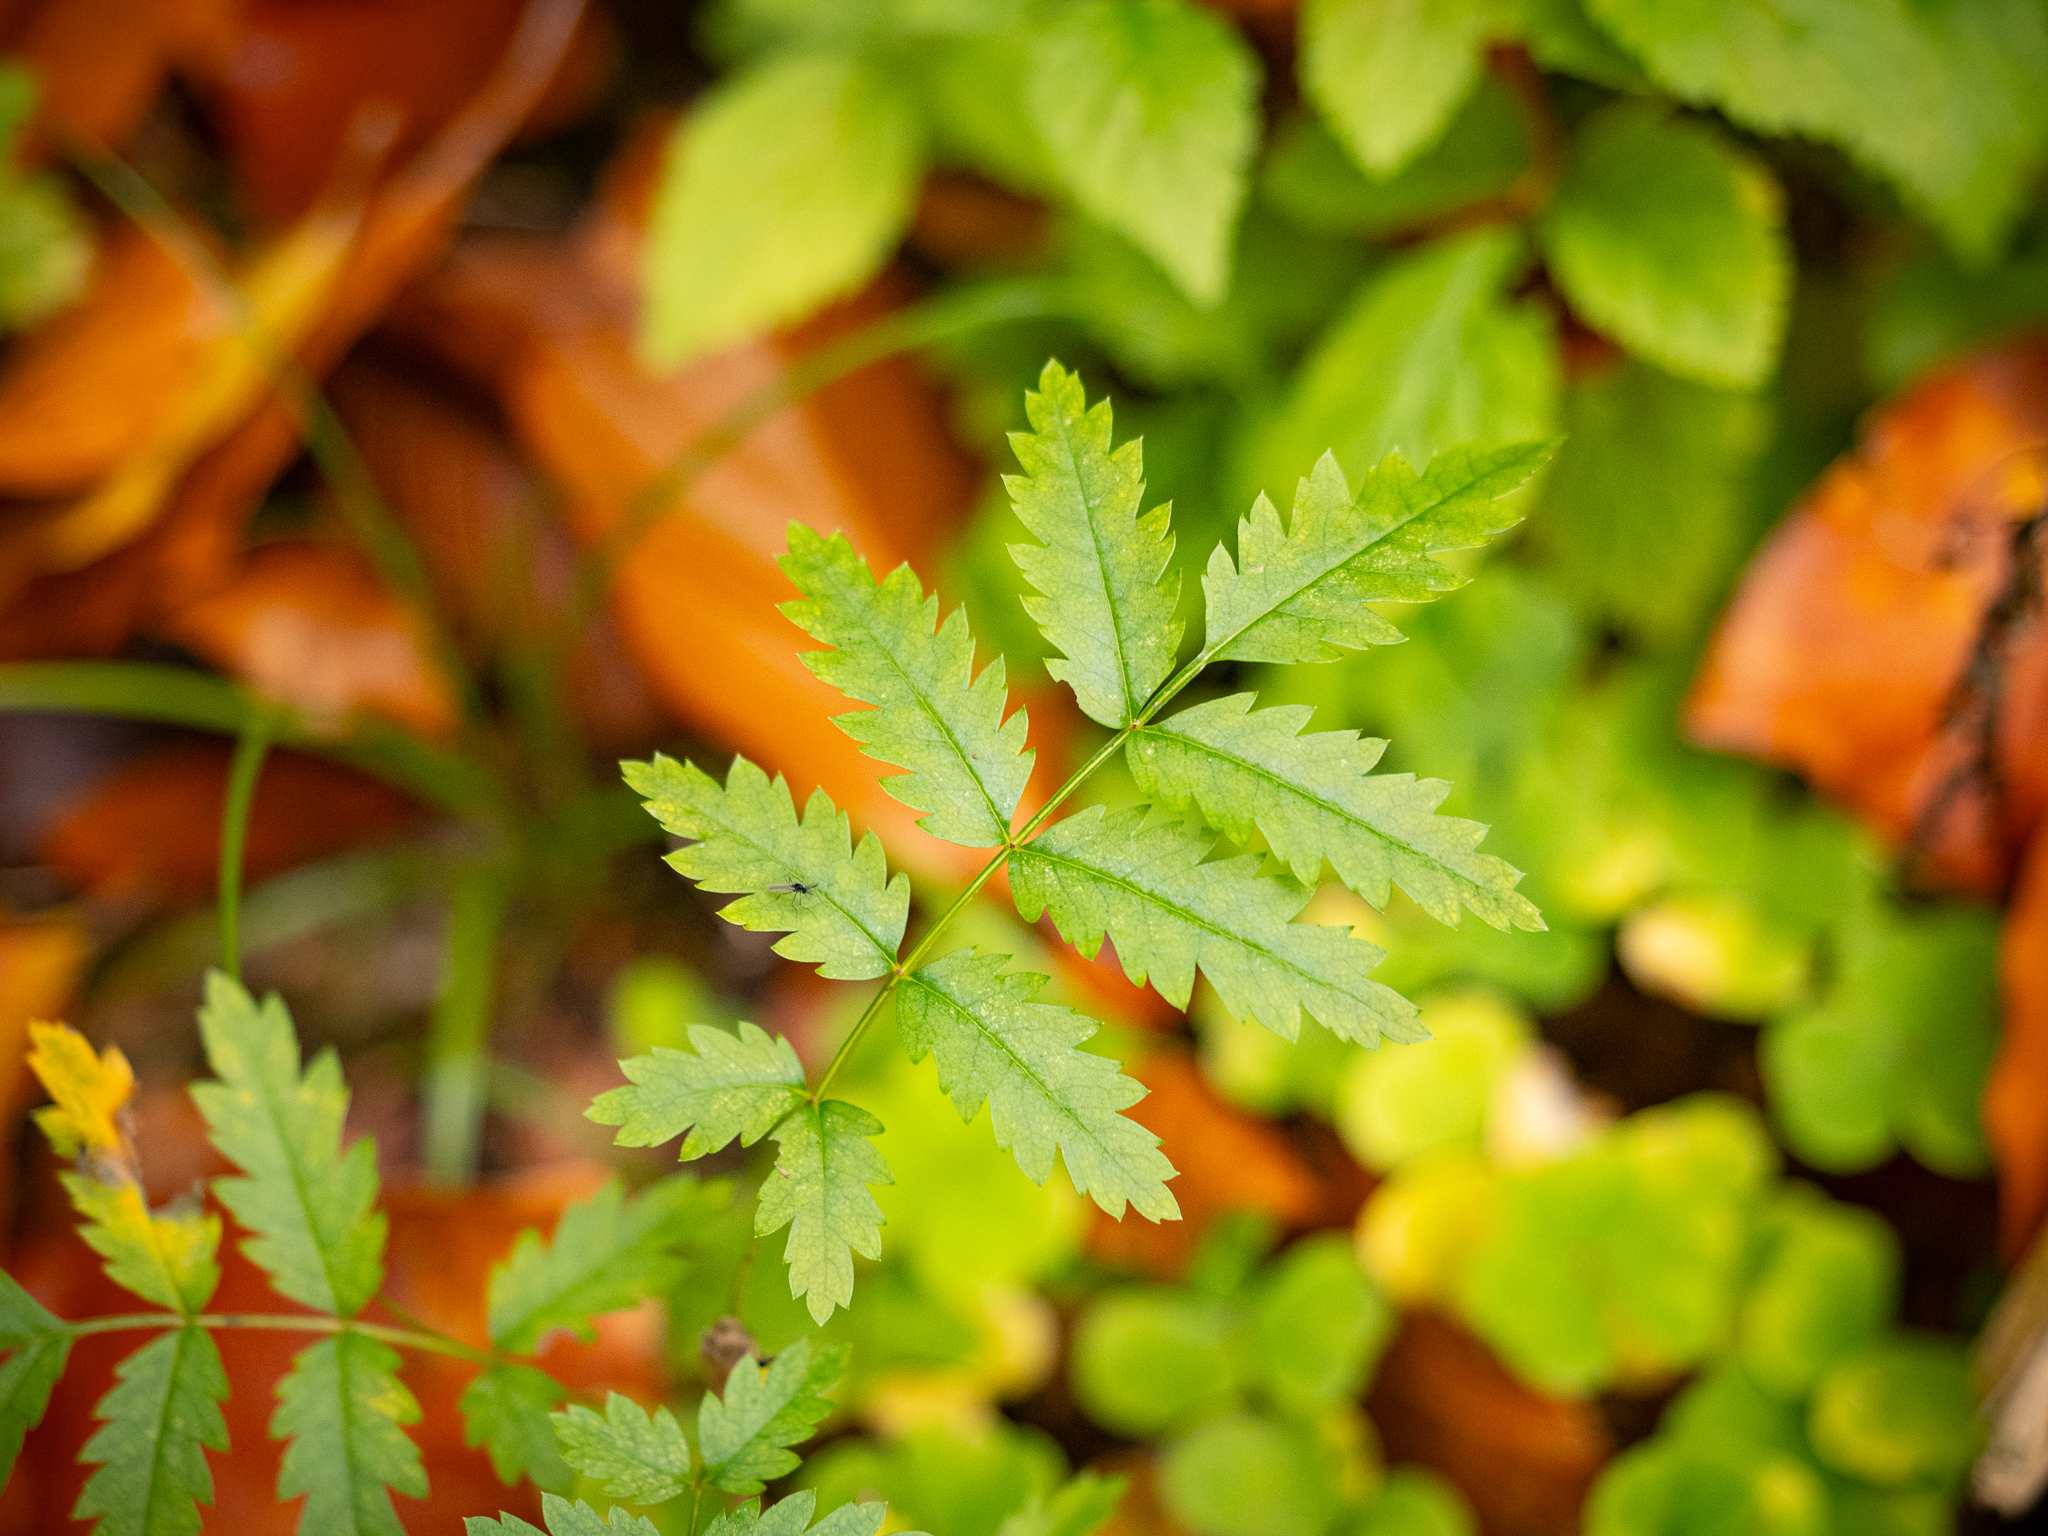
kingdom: Plantae
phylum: Tracheophyta
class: Magnoliopsida
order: Rosales
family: Rosaceae
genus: Sorbus
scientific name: Sorbus aucuparia
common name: Rowan
